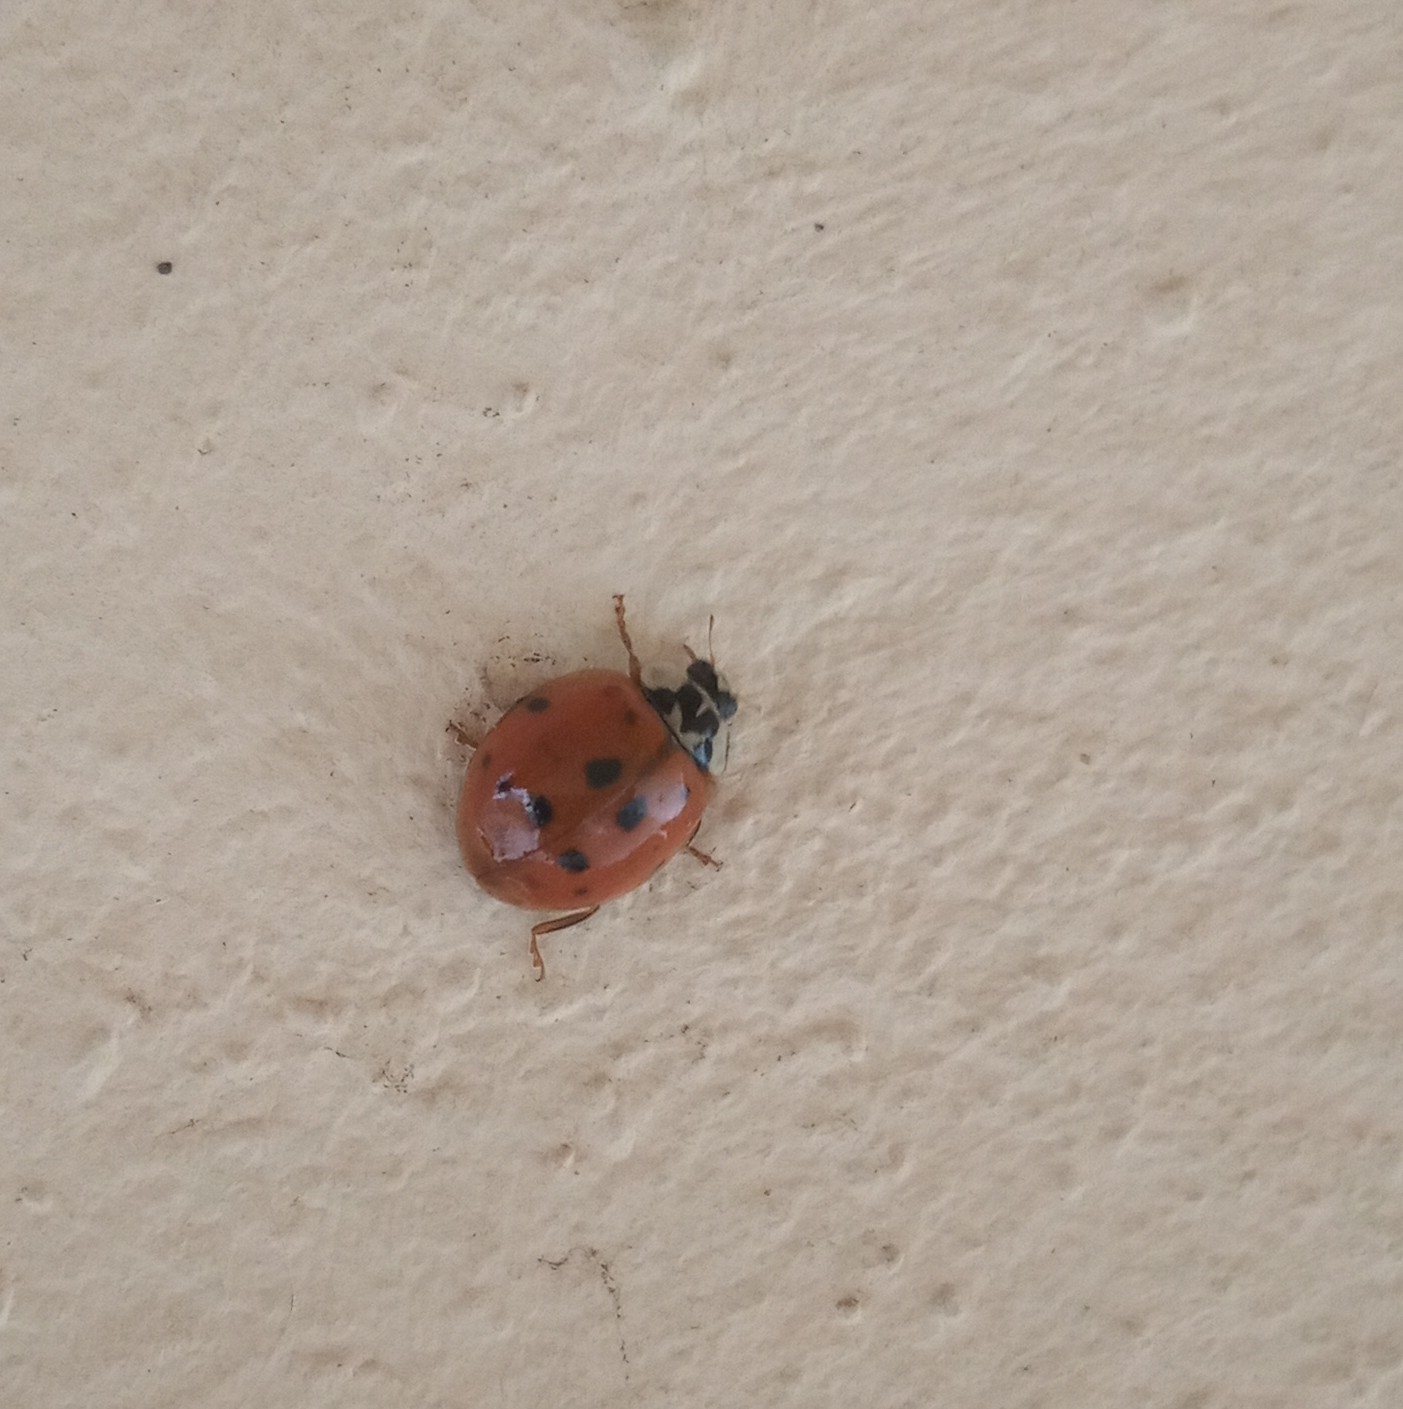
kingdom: Animalia
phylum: Arthropoda
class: Insecta
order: Coleoptera
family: Coccinellidae
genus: Harmonia
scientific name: Harmonia axyridis
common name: Harlequin ladybird
